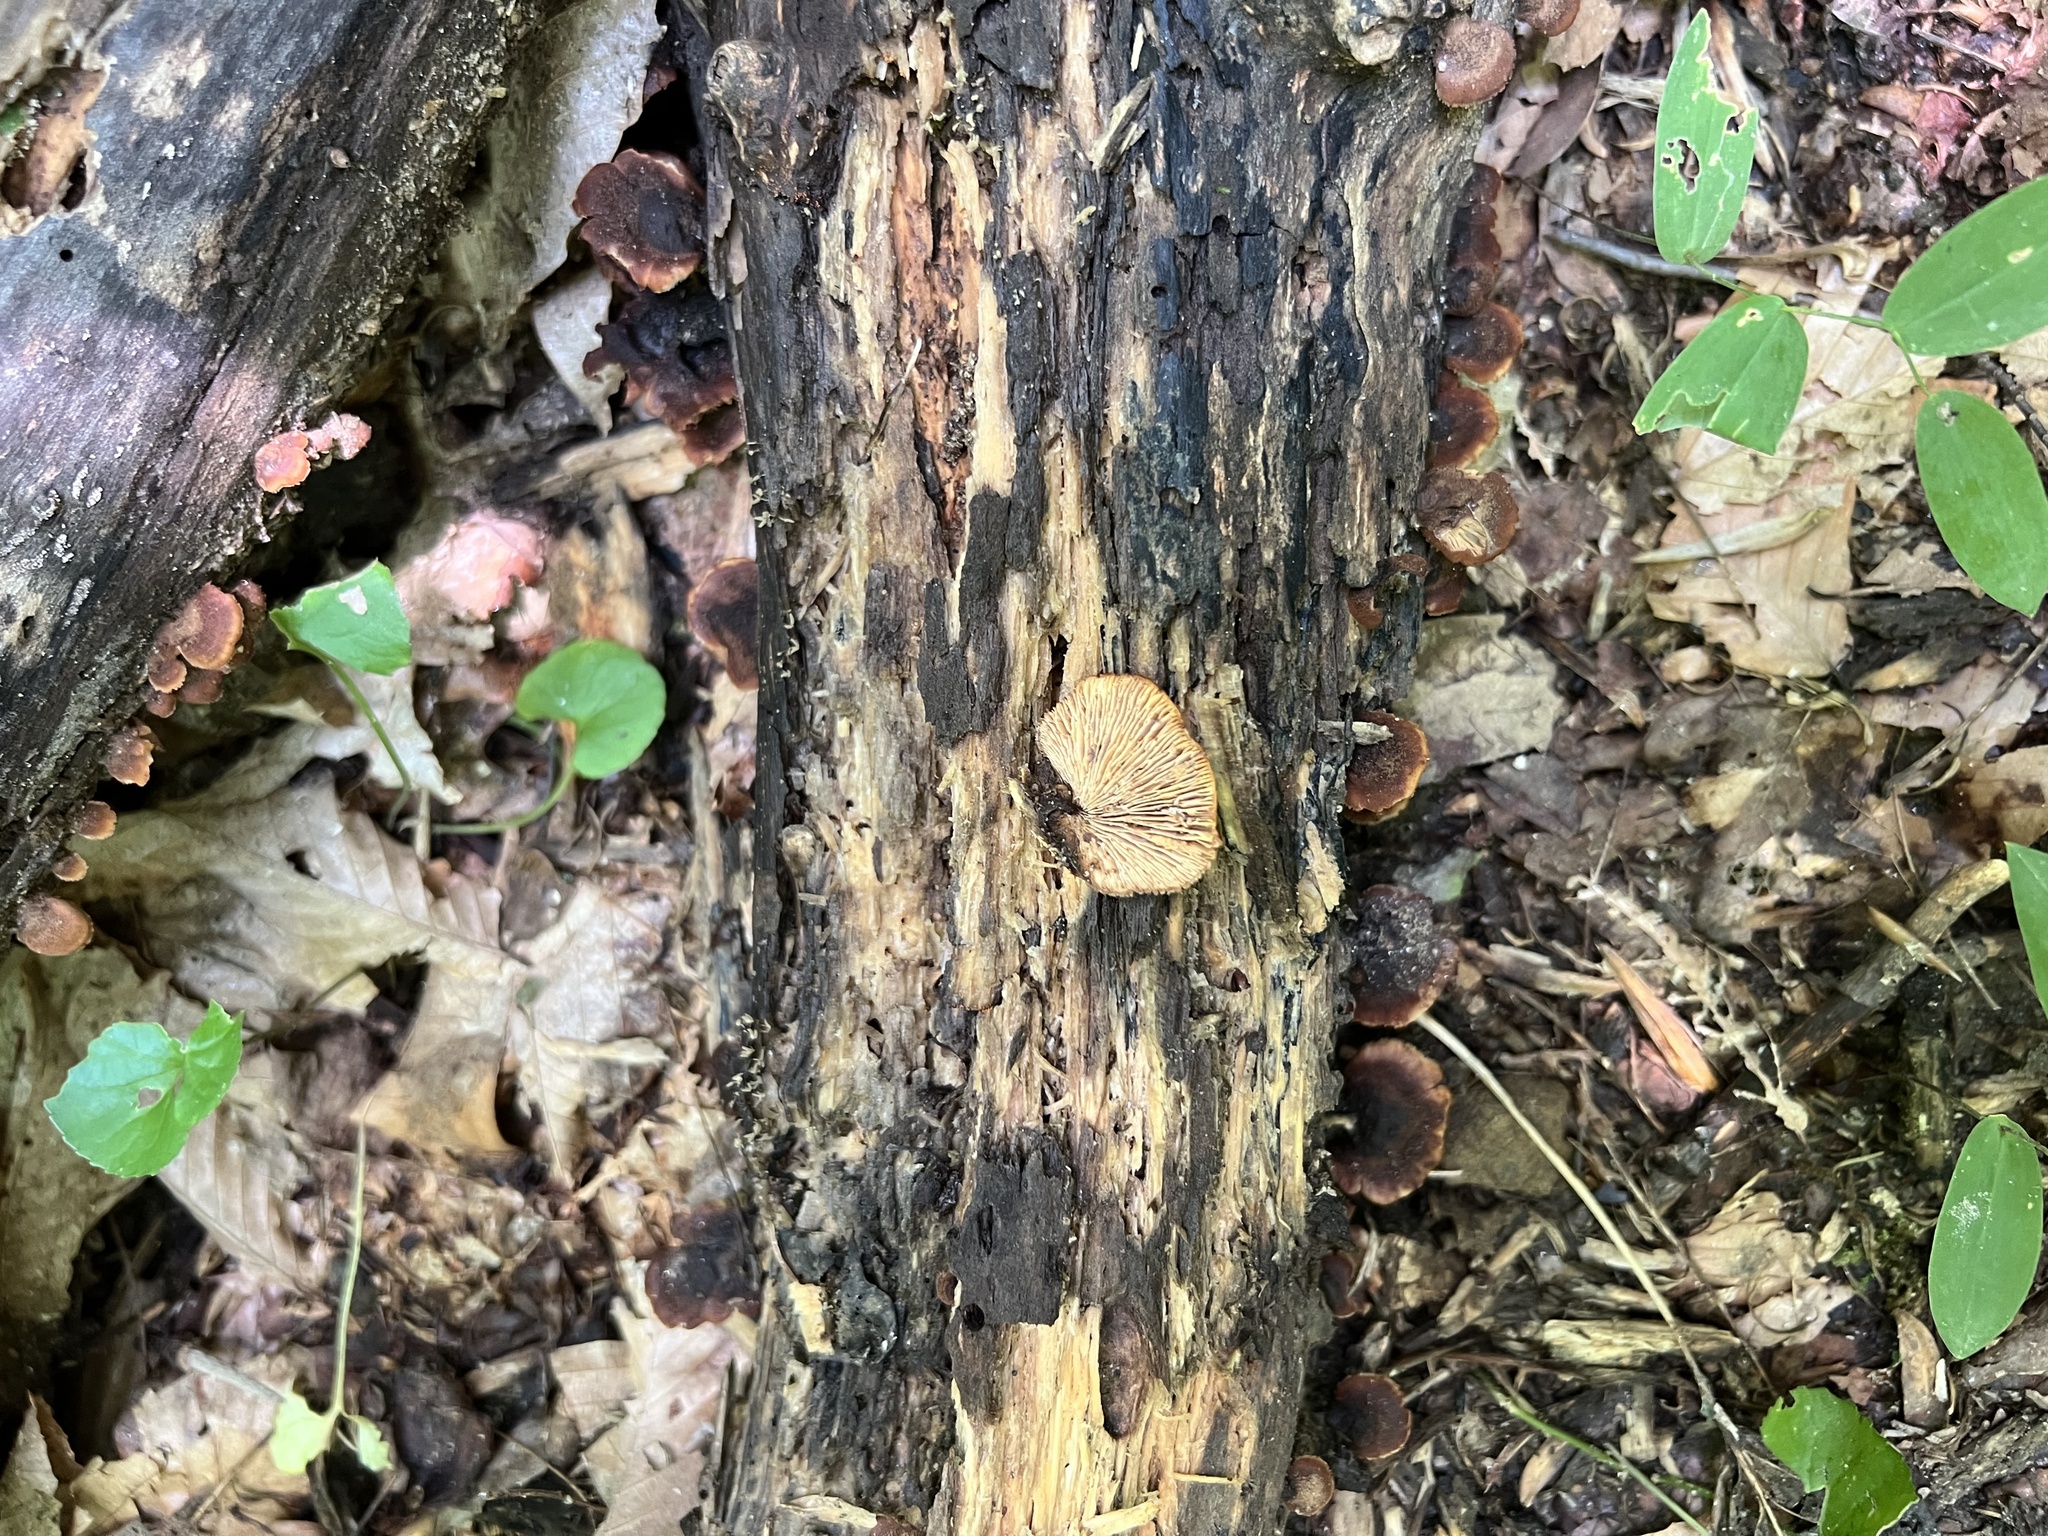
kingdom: Fungi
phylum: Basidiomycota
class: Agaricomycetes
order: Russulales
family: Auriscalpiaceae
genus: Lentinellus
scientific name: Lentinellus ursinus
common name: Bear lentinus
